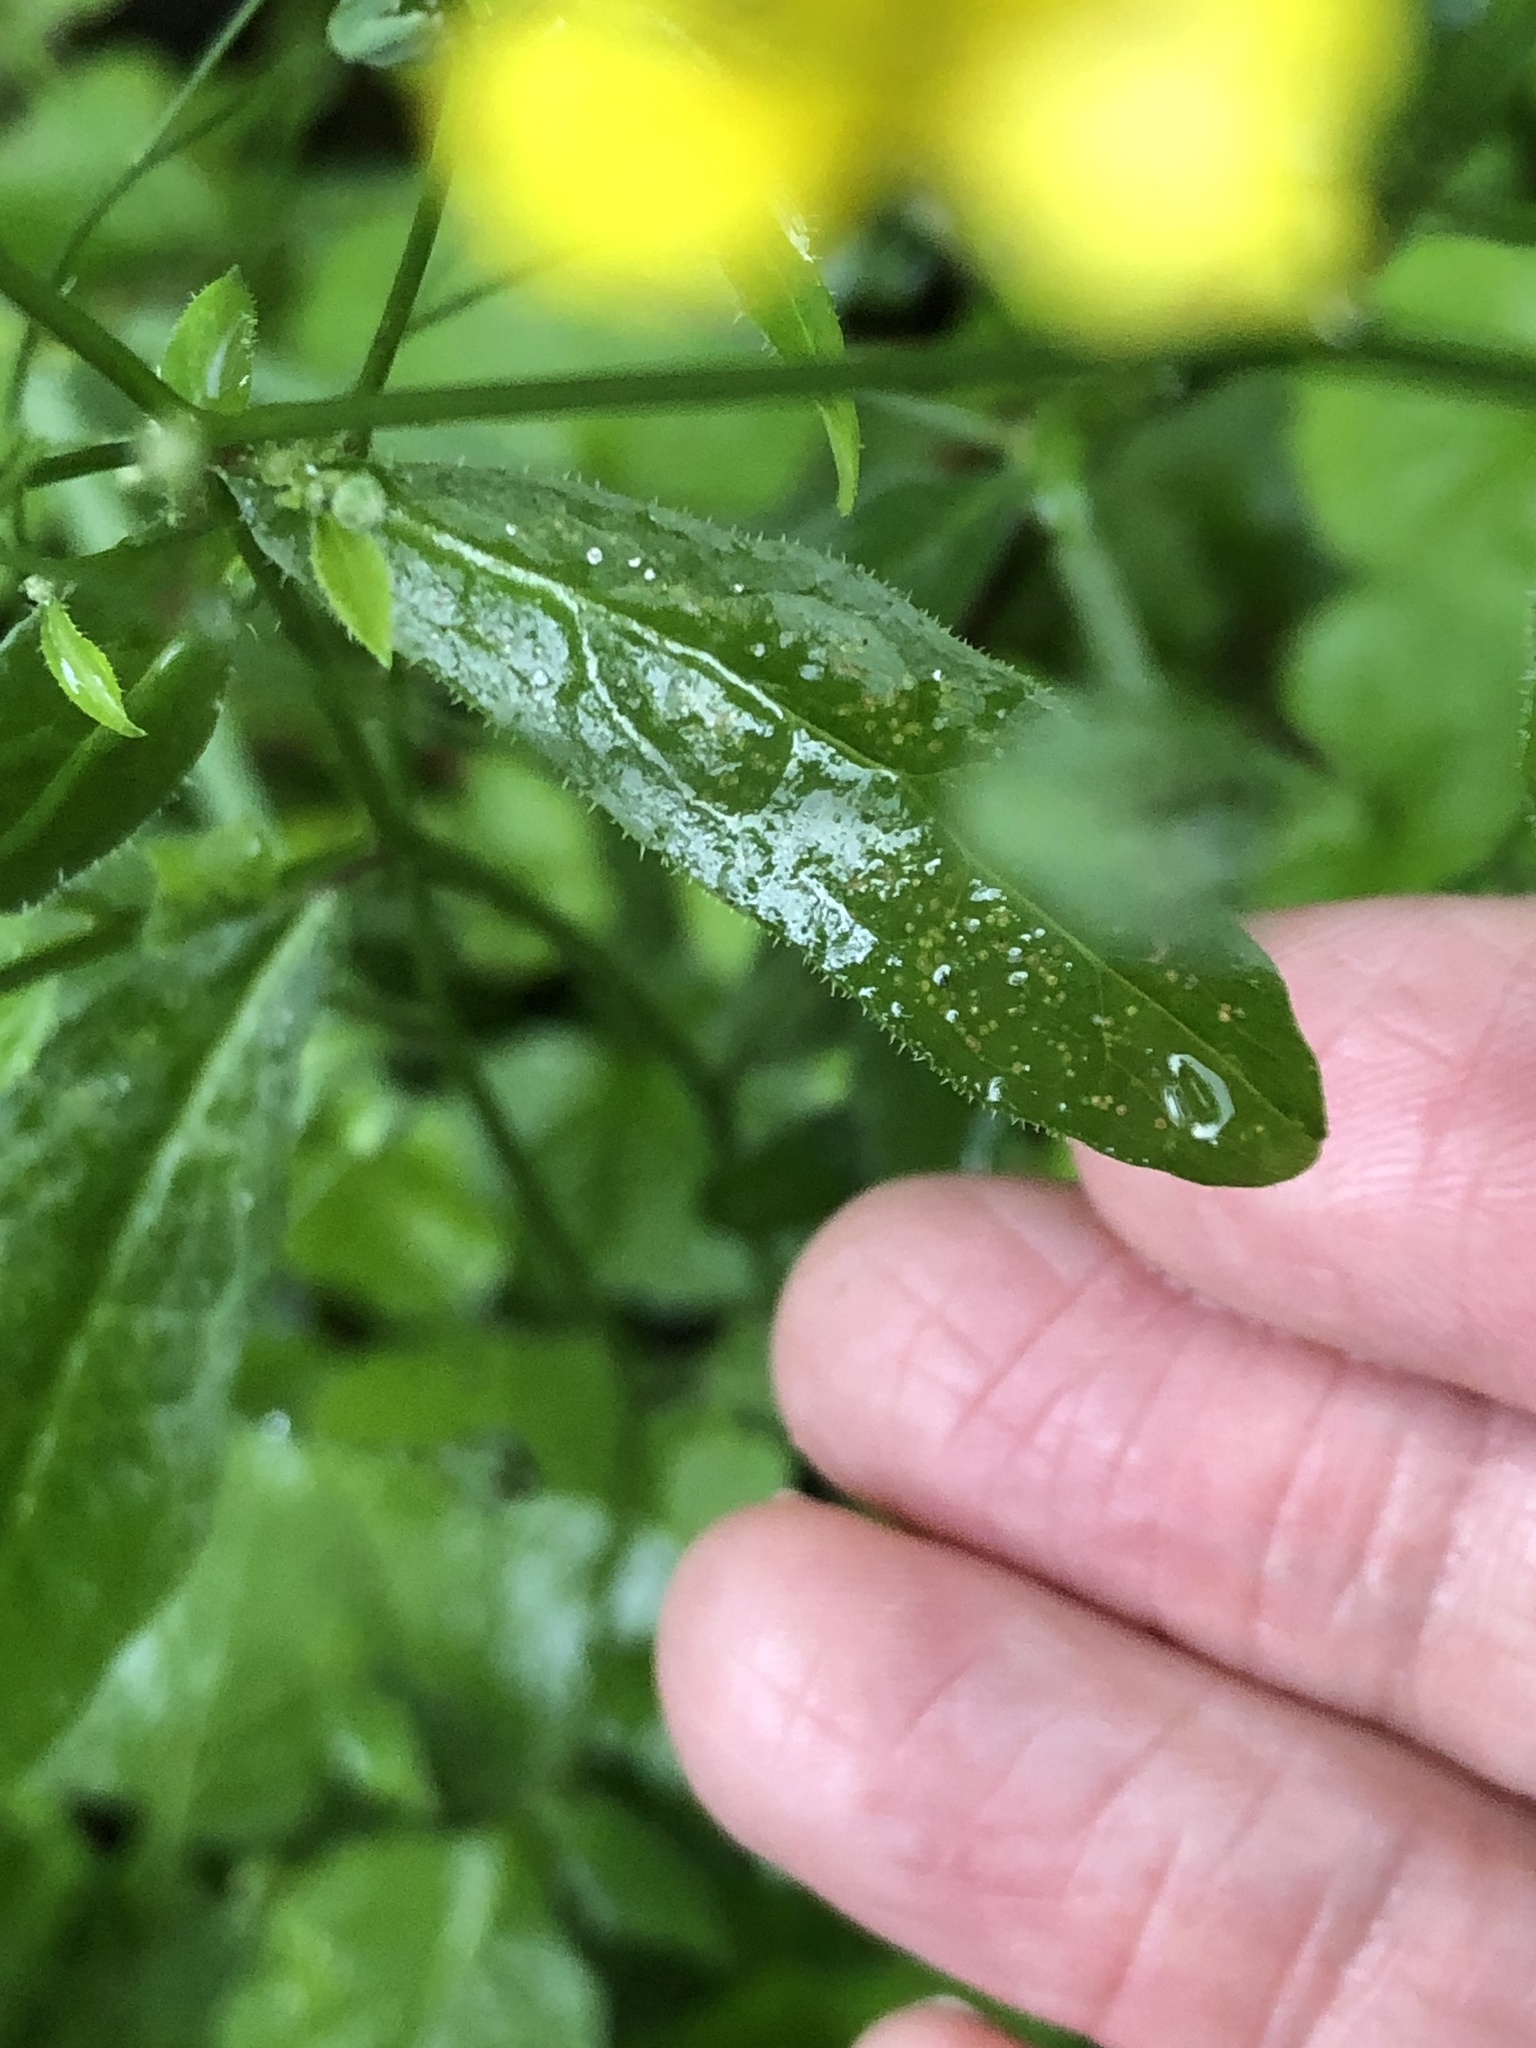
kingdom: Plantae
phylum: Tracheophyta
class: Magnoliopsida
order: Asterales
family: Asteraceae
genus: Lapsana
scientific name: Lapsana communis
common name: Nipplewort
